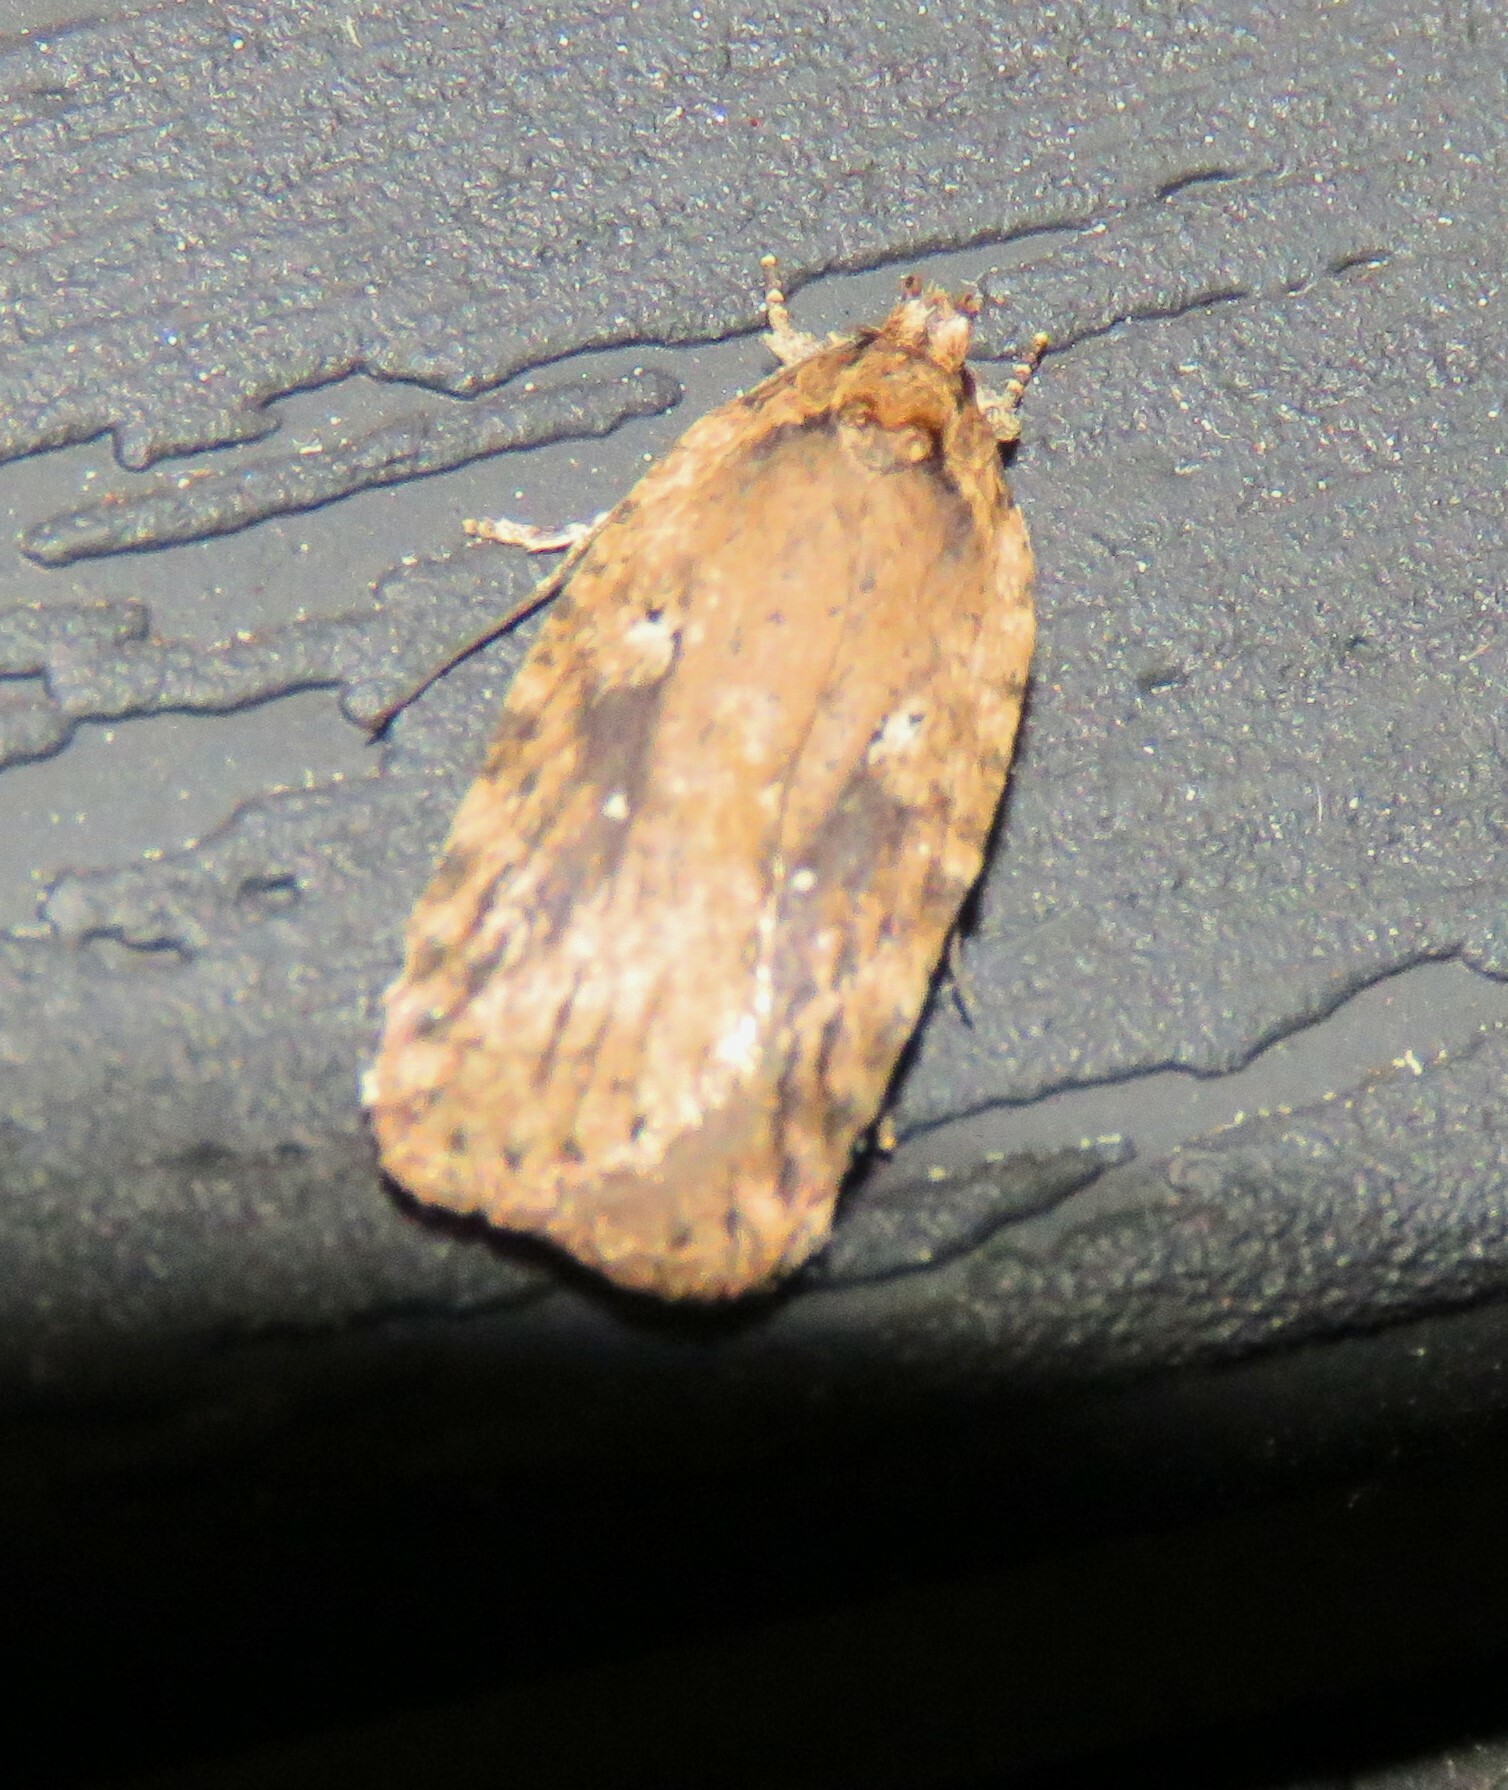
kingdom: Animalia
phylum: Arthropoda
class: Insecta
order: Lepidoptera
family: Depressariidae
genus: Agonopterix
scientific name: Agonopterix pulvipennella
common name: Goldenrod leafffolder
